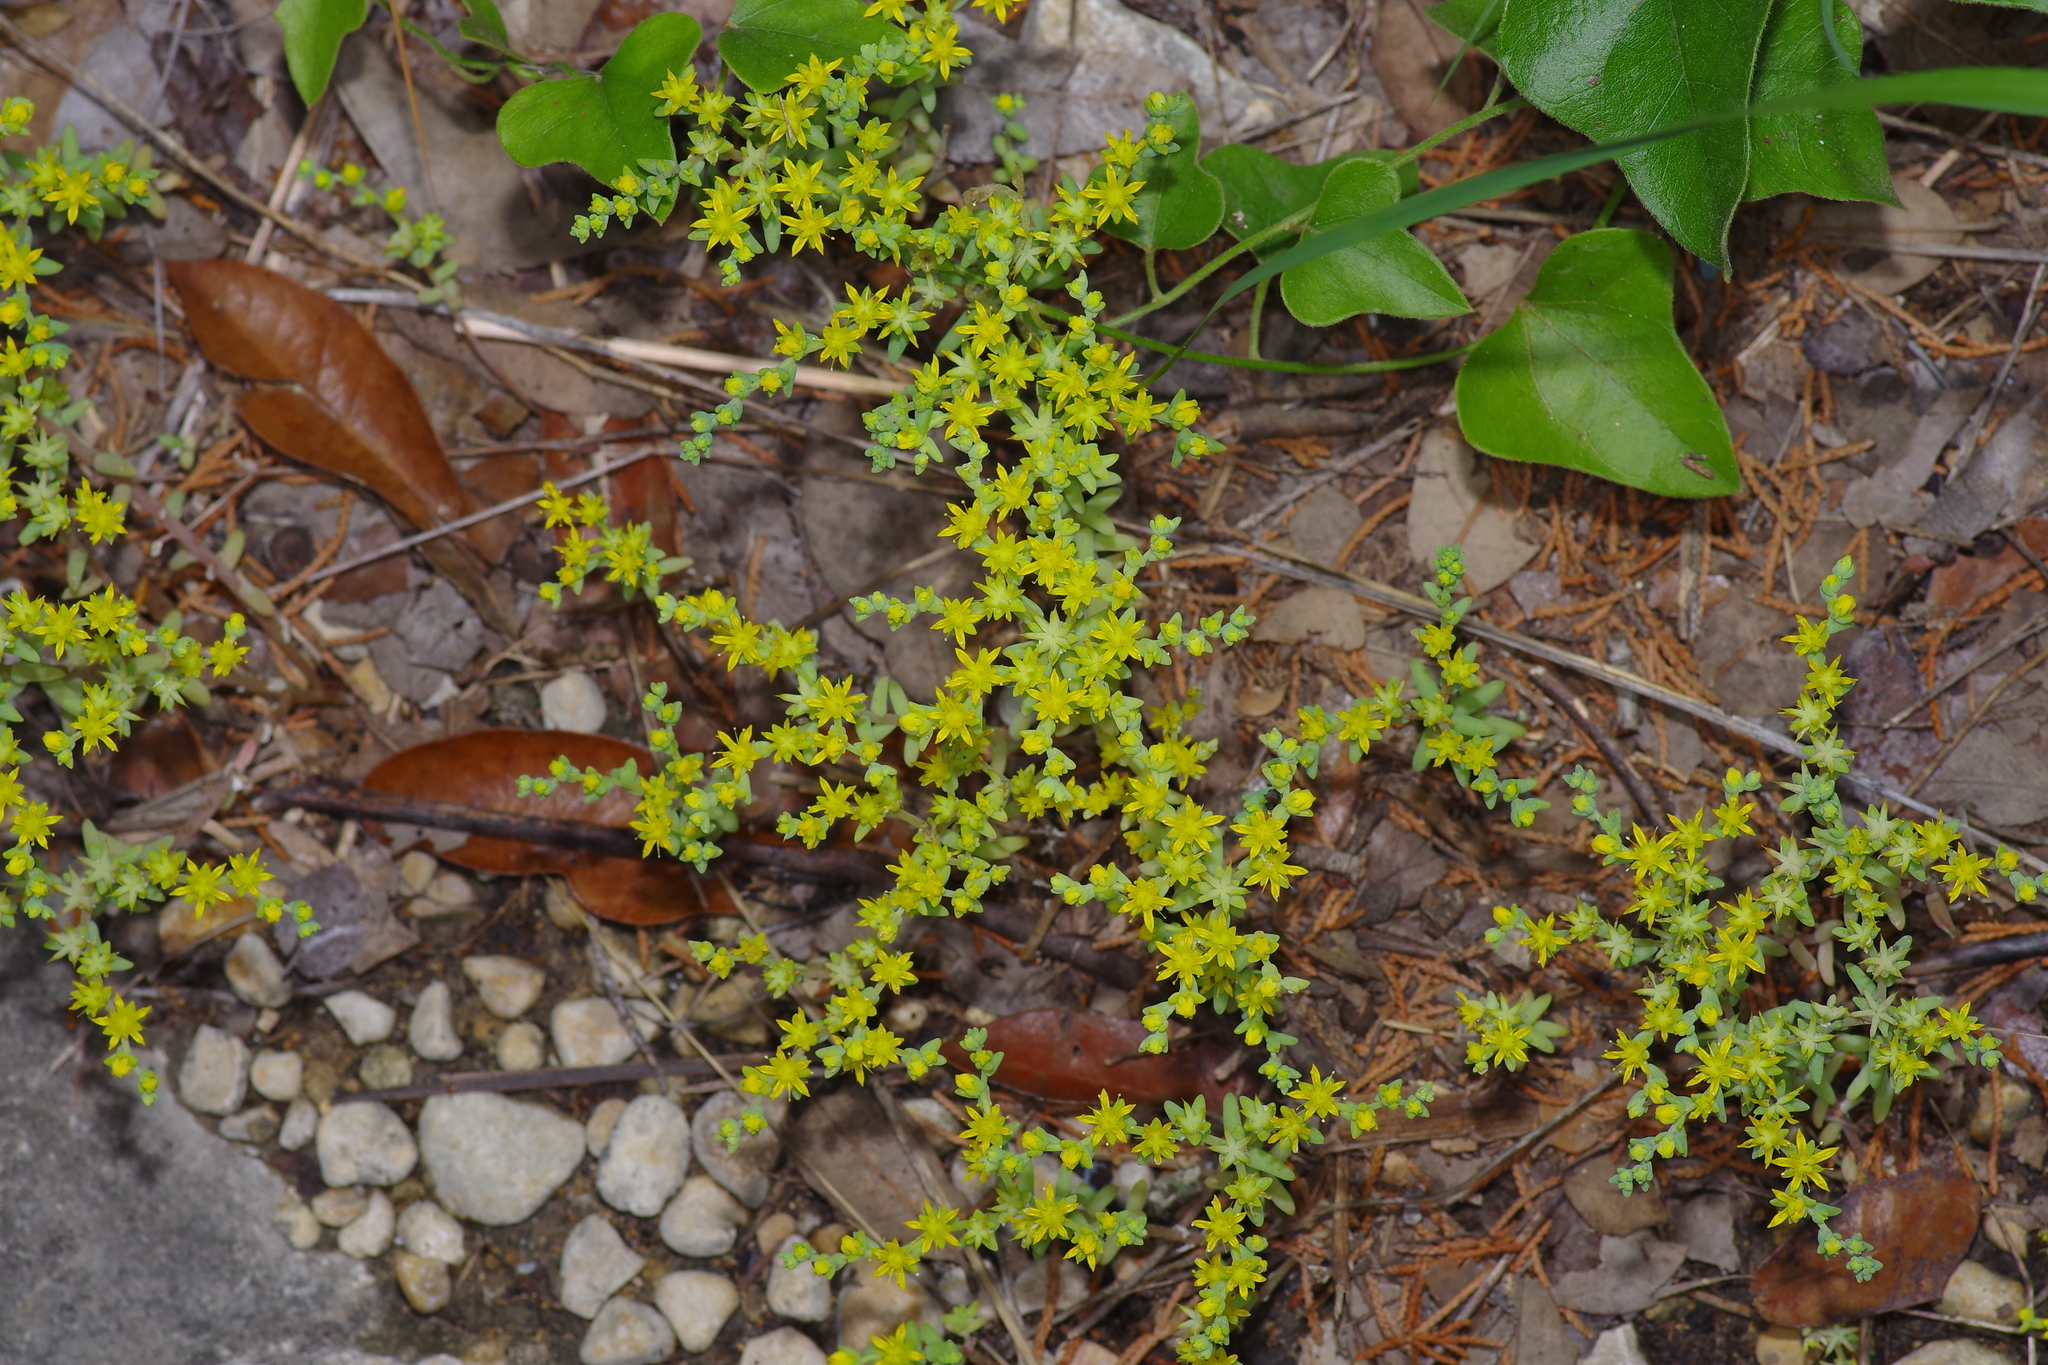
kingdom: Plantae
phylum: Tracheophyta
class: Magnoliopsida
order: Saxifragales
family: Crassulaceae
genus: Sedum
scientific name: Sedum nuttallii
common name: Yellow stonecrop
